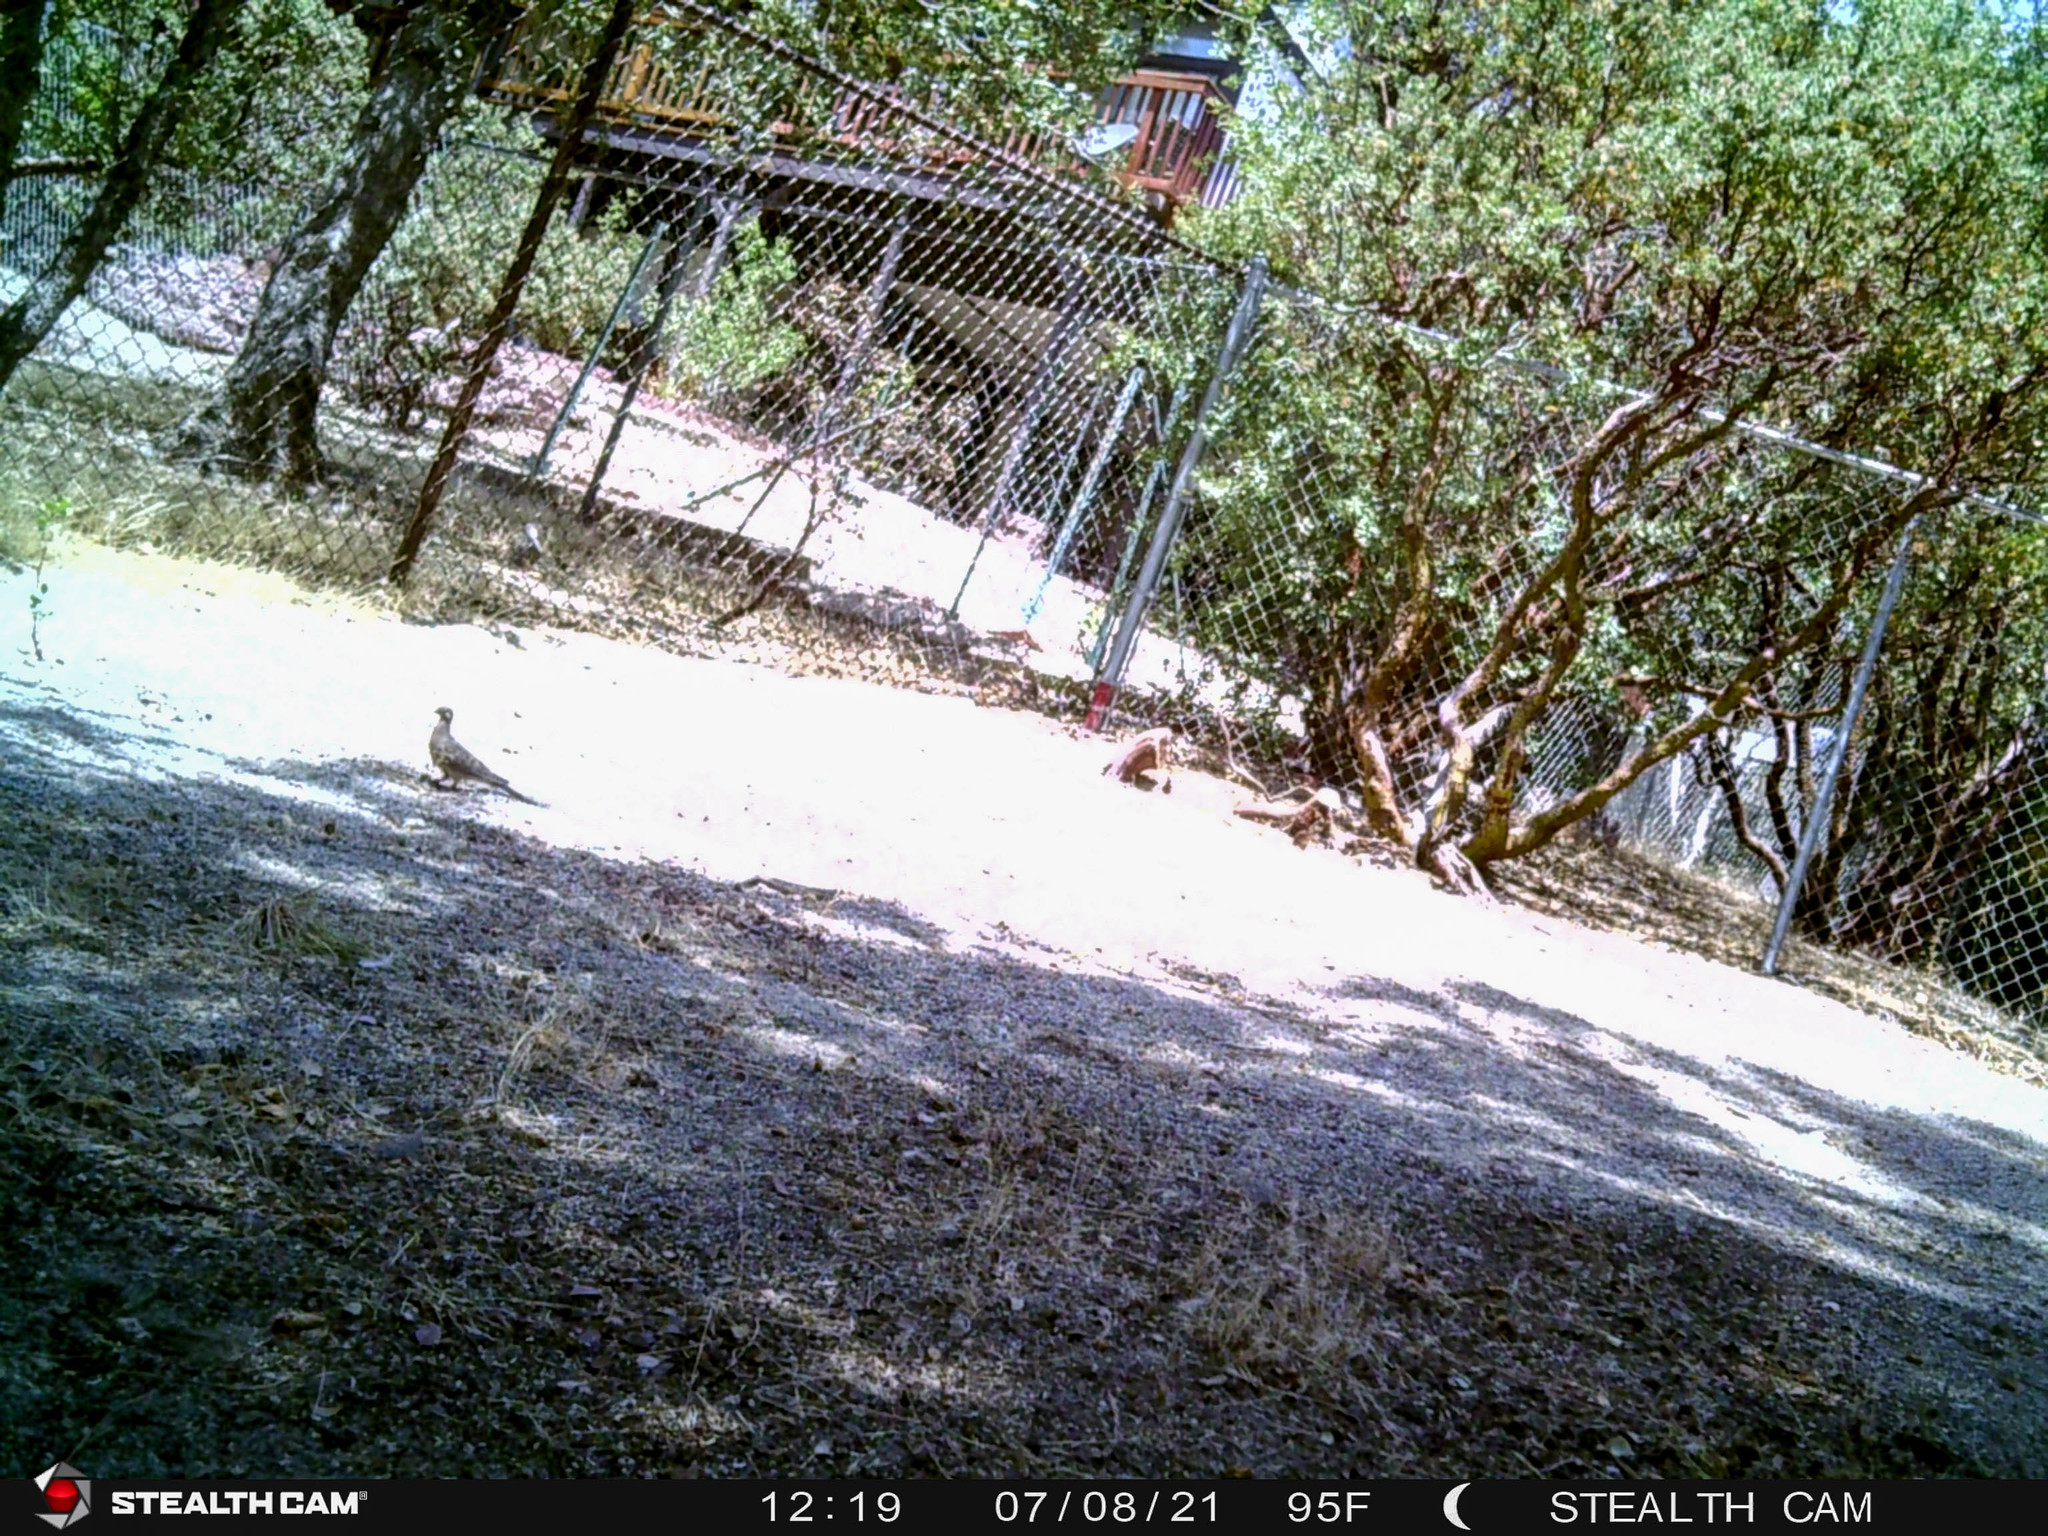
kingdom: Animalia
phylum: Chordata
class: Aves
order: Columbiformes
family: Columbidae
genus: Zenaida
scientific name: Zenaida macroura
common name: Mourning dove
